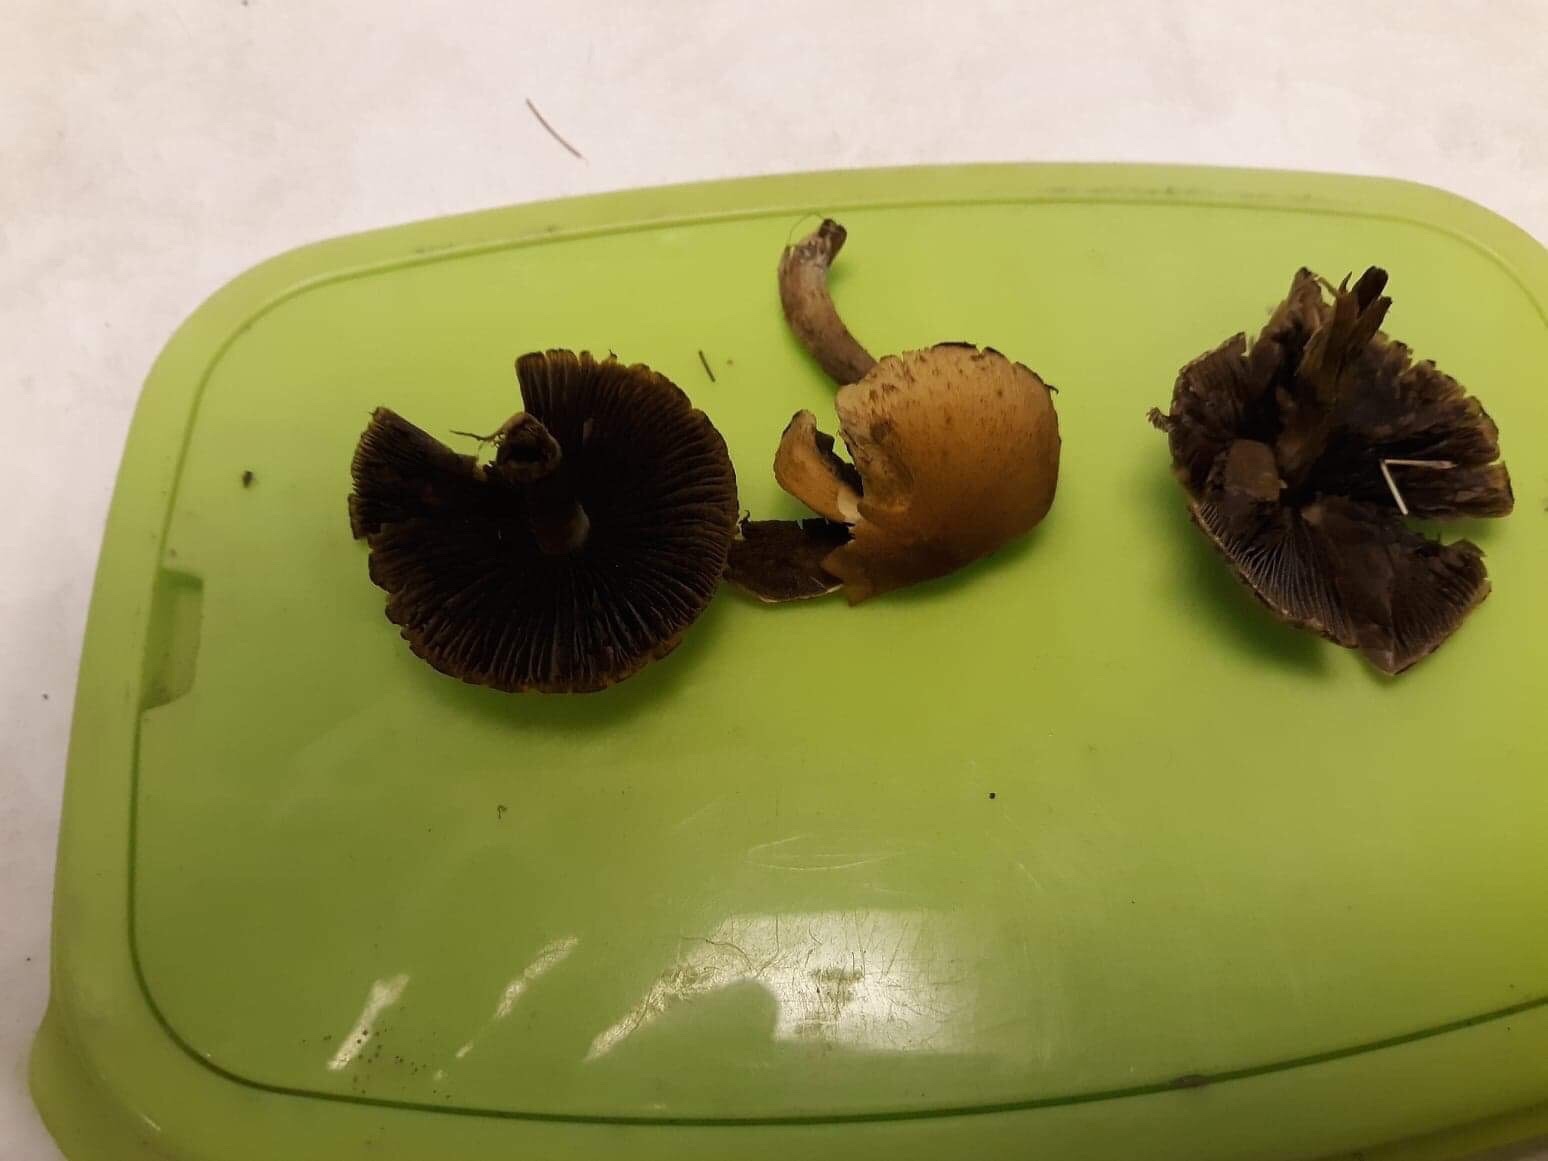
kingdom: Fungi
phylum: Basidiomycota
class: Agaricomycetes
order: Agaricales
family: Psathyrellaceae
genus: Lacrymaria
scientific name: Lacrymaria lacrymabunda
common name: Weeping widow
